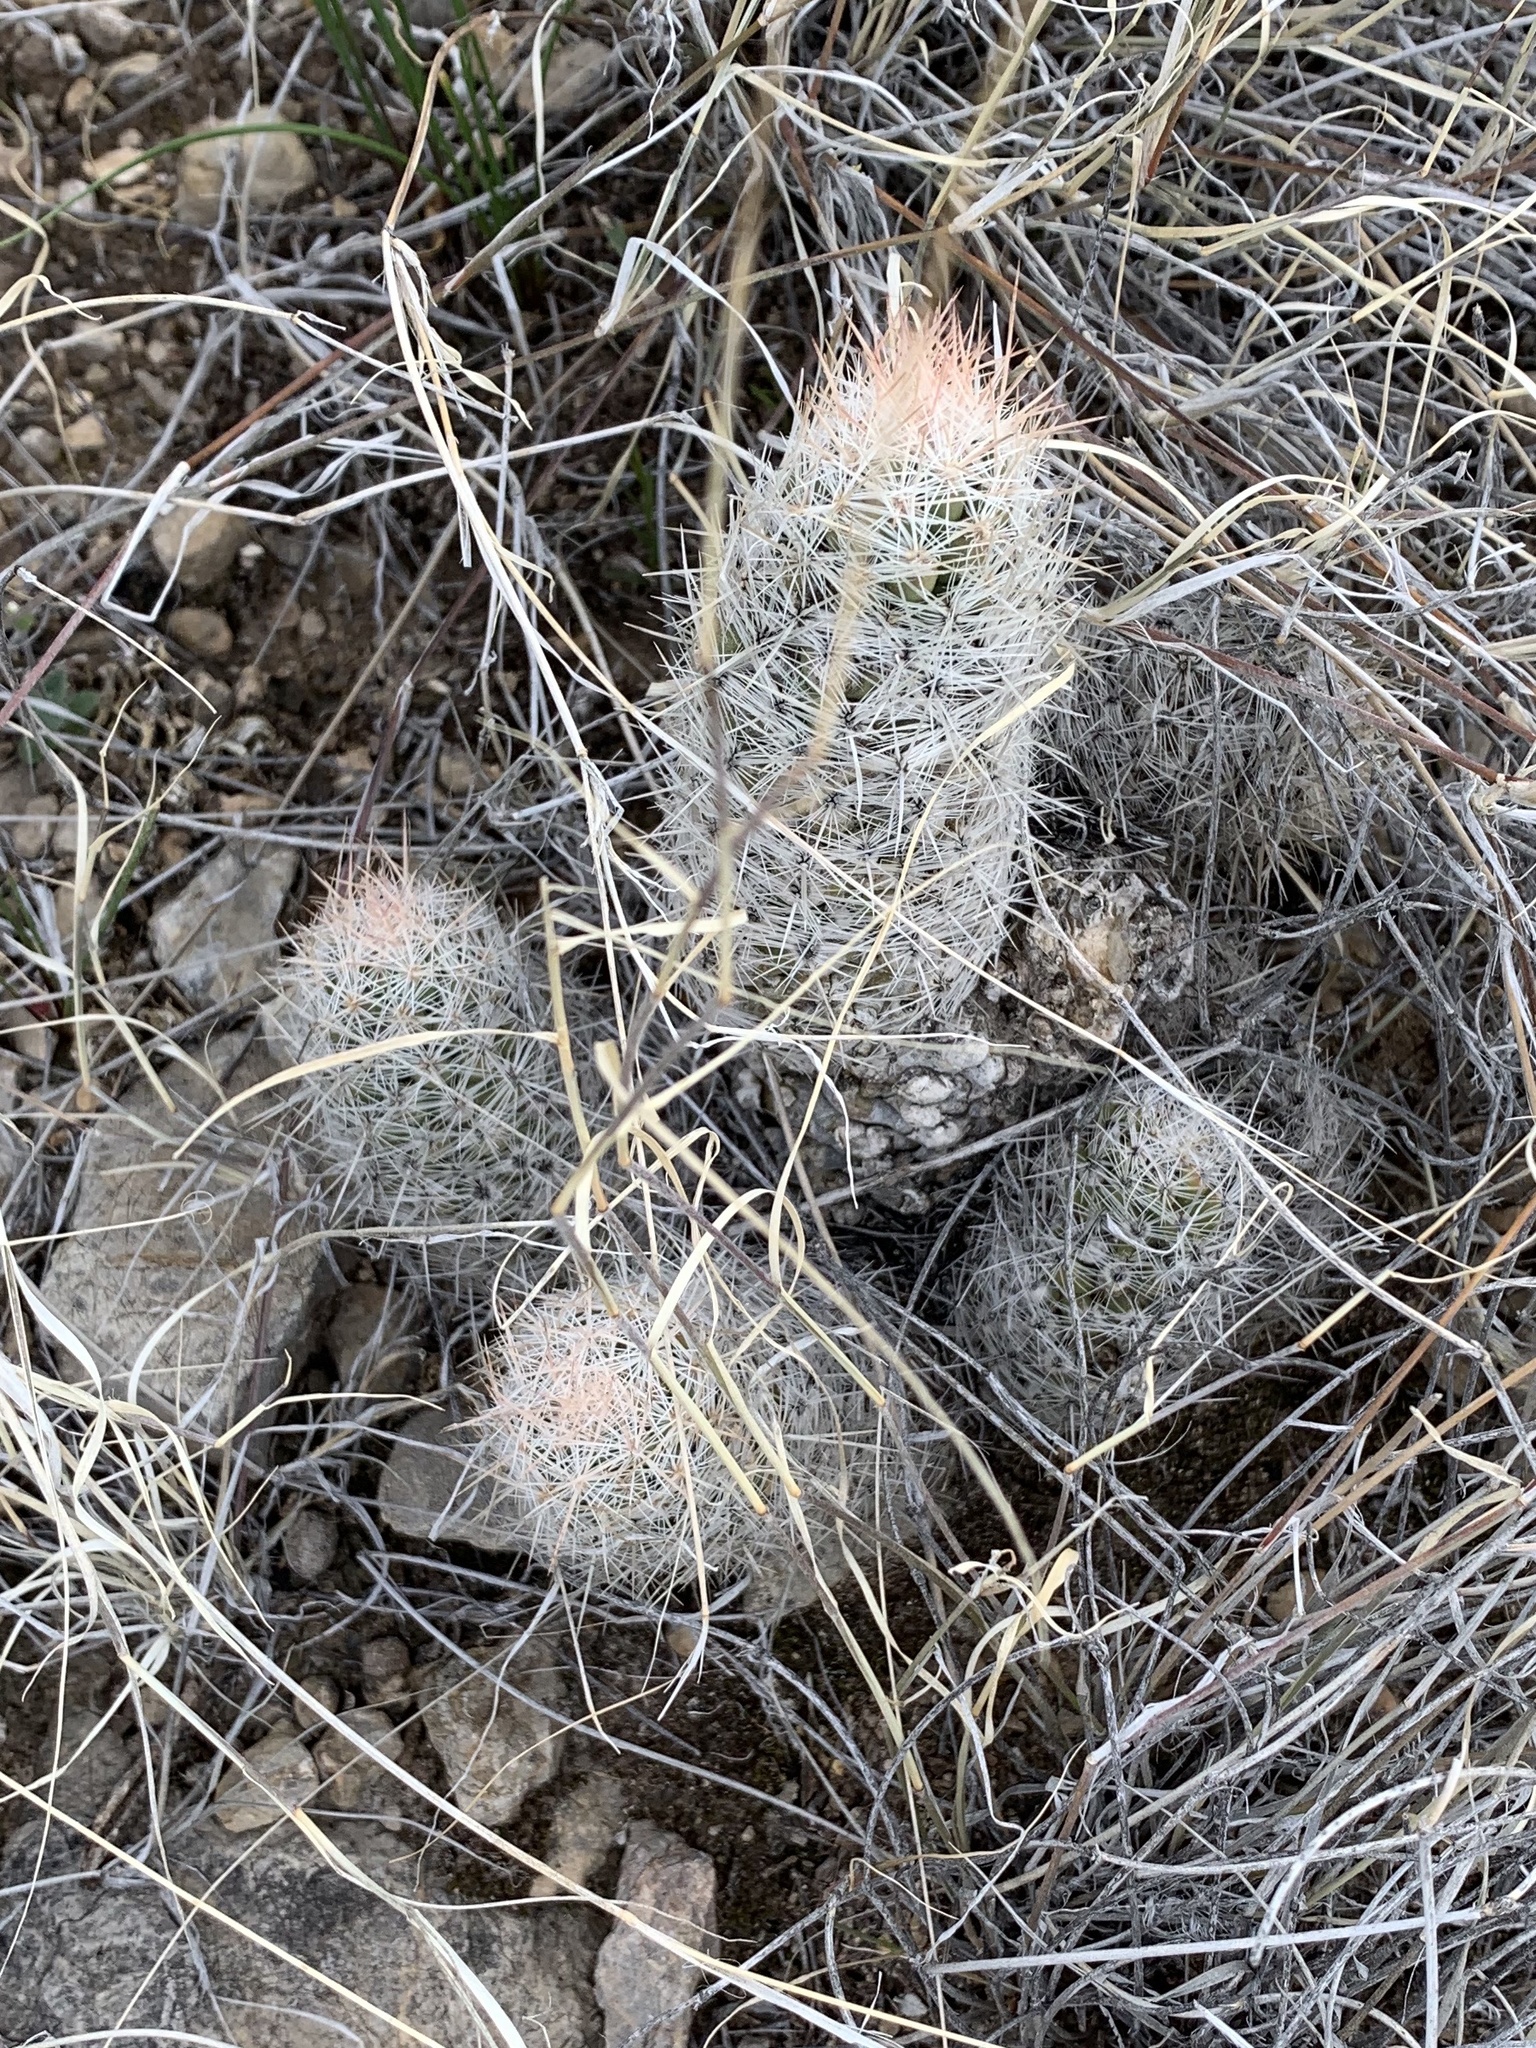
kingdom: Plantae
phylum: Tracheophyta
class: Magnoliopsida
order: Caryophyllales
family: Cactaceae
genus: Pelecyphora
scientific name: Pelecyphora tuberculosa
